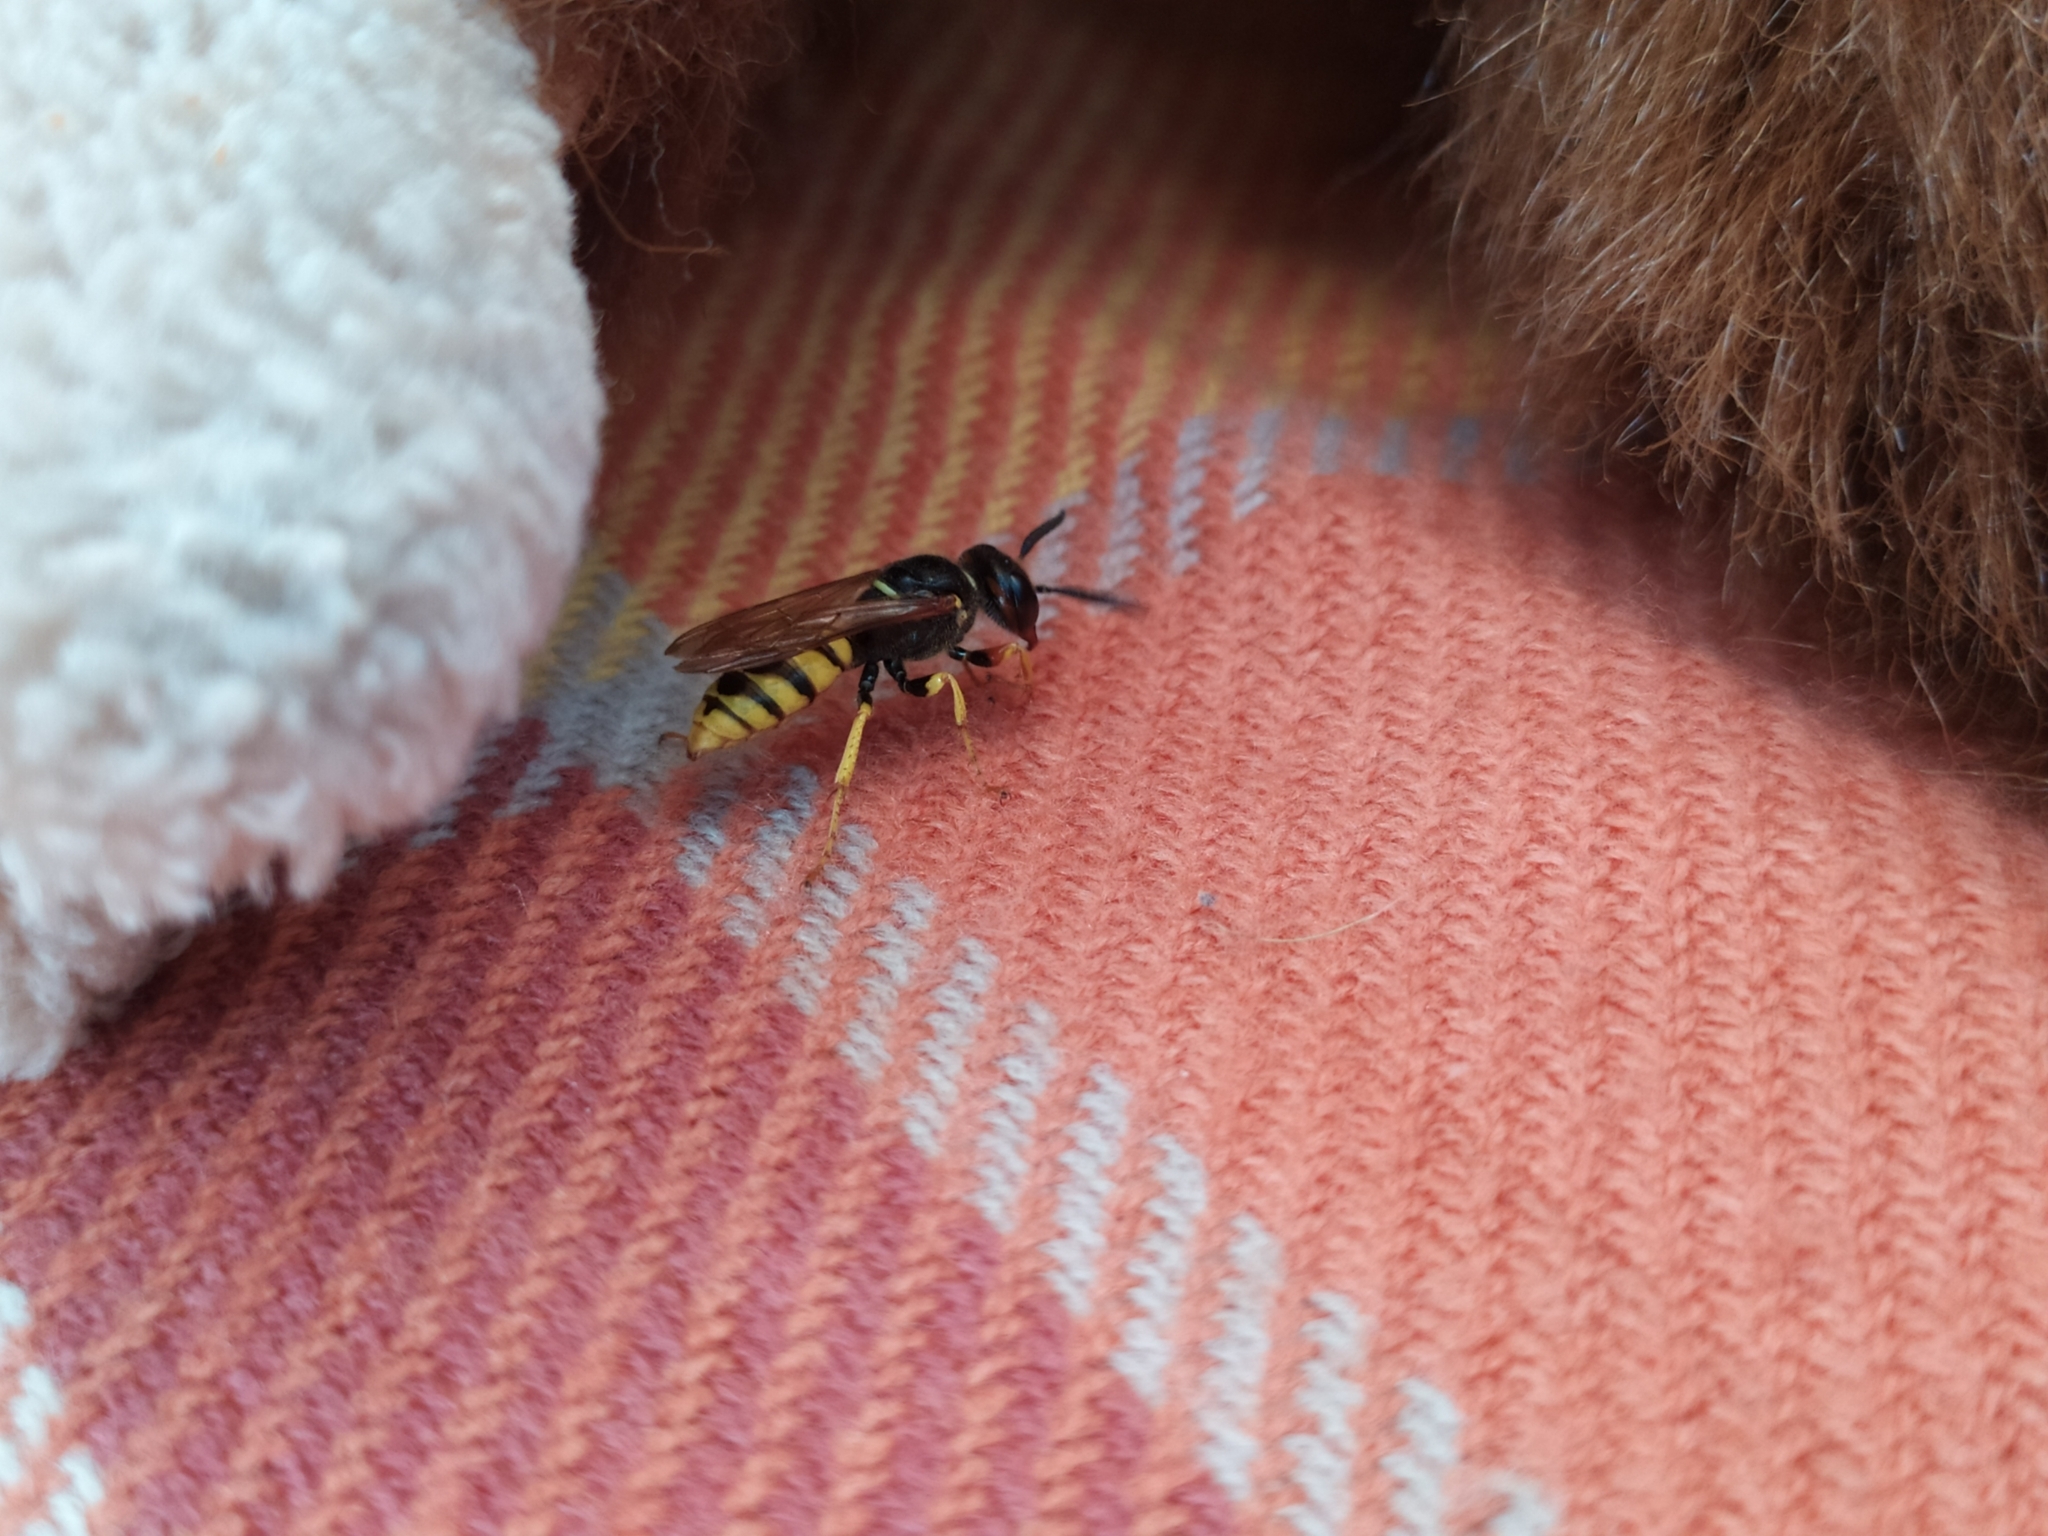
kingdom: Animalia
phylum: Arthropoda
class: Insecta
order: Hymenoptera
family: Crabronidae
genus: Philanthus
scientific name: Philanthus triangulum
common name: Bee wolf
